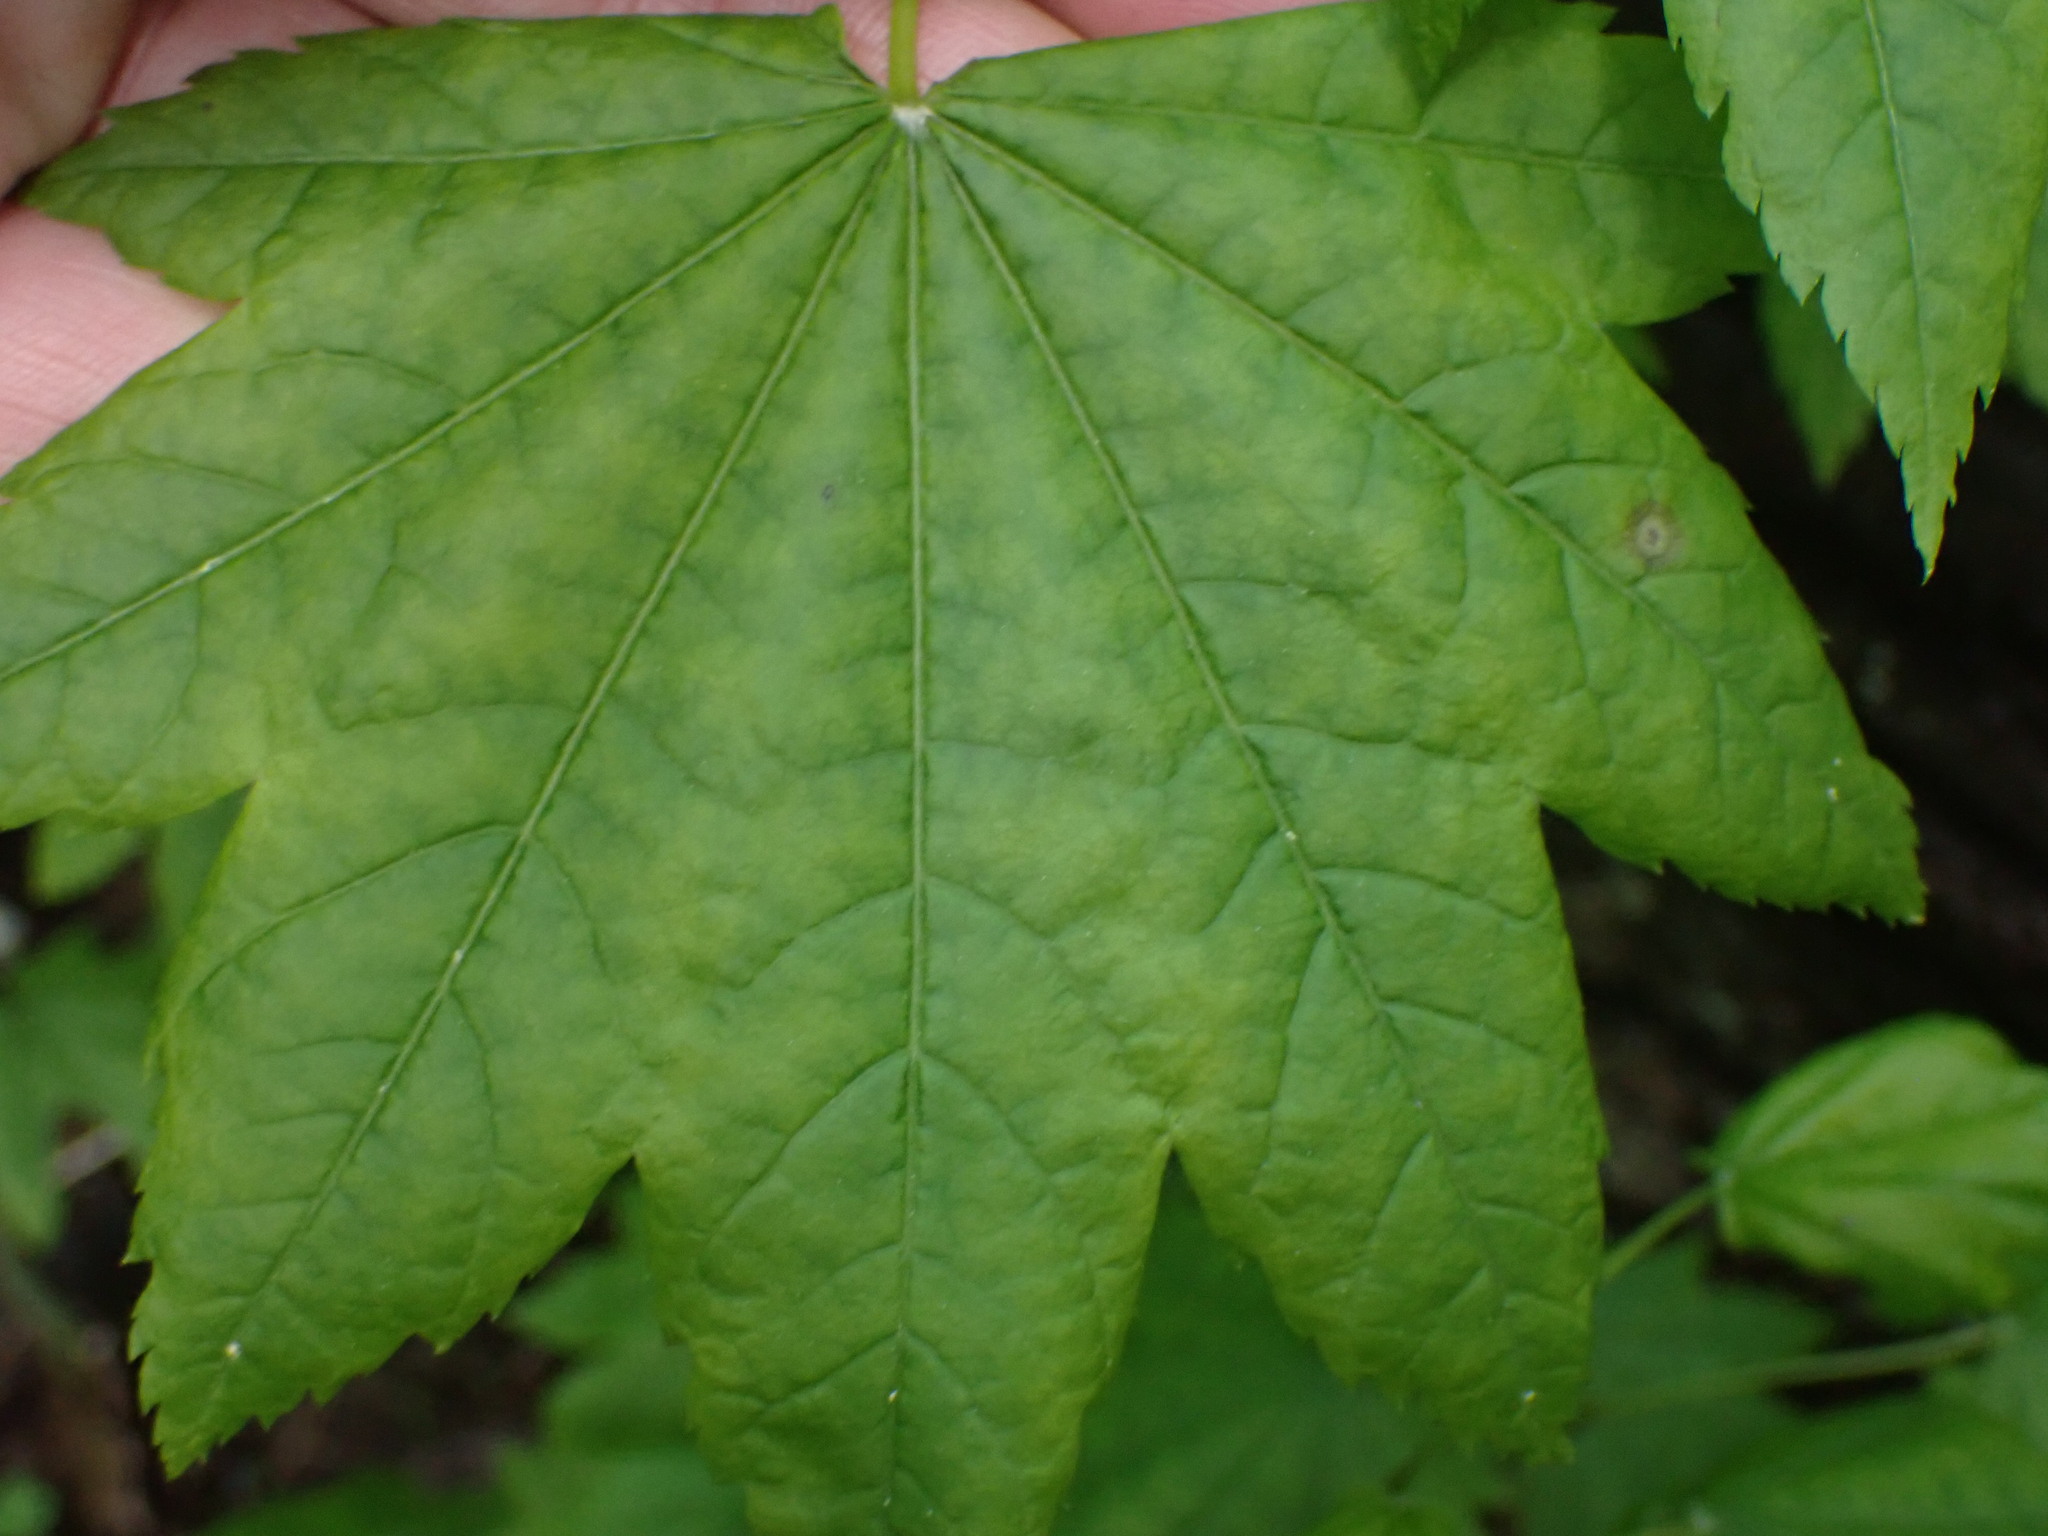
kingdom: Plantae
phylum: Tracheophyta
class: Magnoliopsida
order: Sapindales
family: Sapindaceae
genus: Acer
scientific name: Acer circinatum
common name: Vine maple
